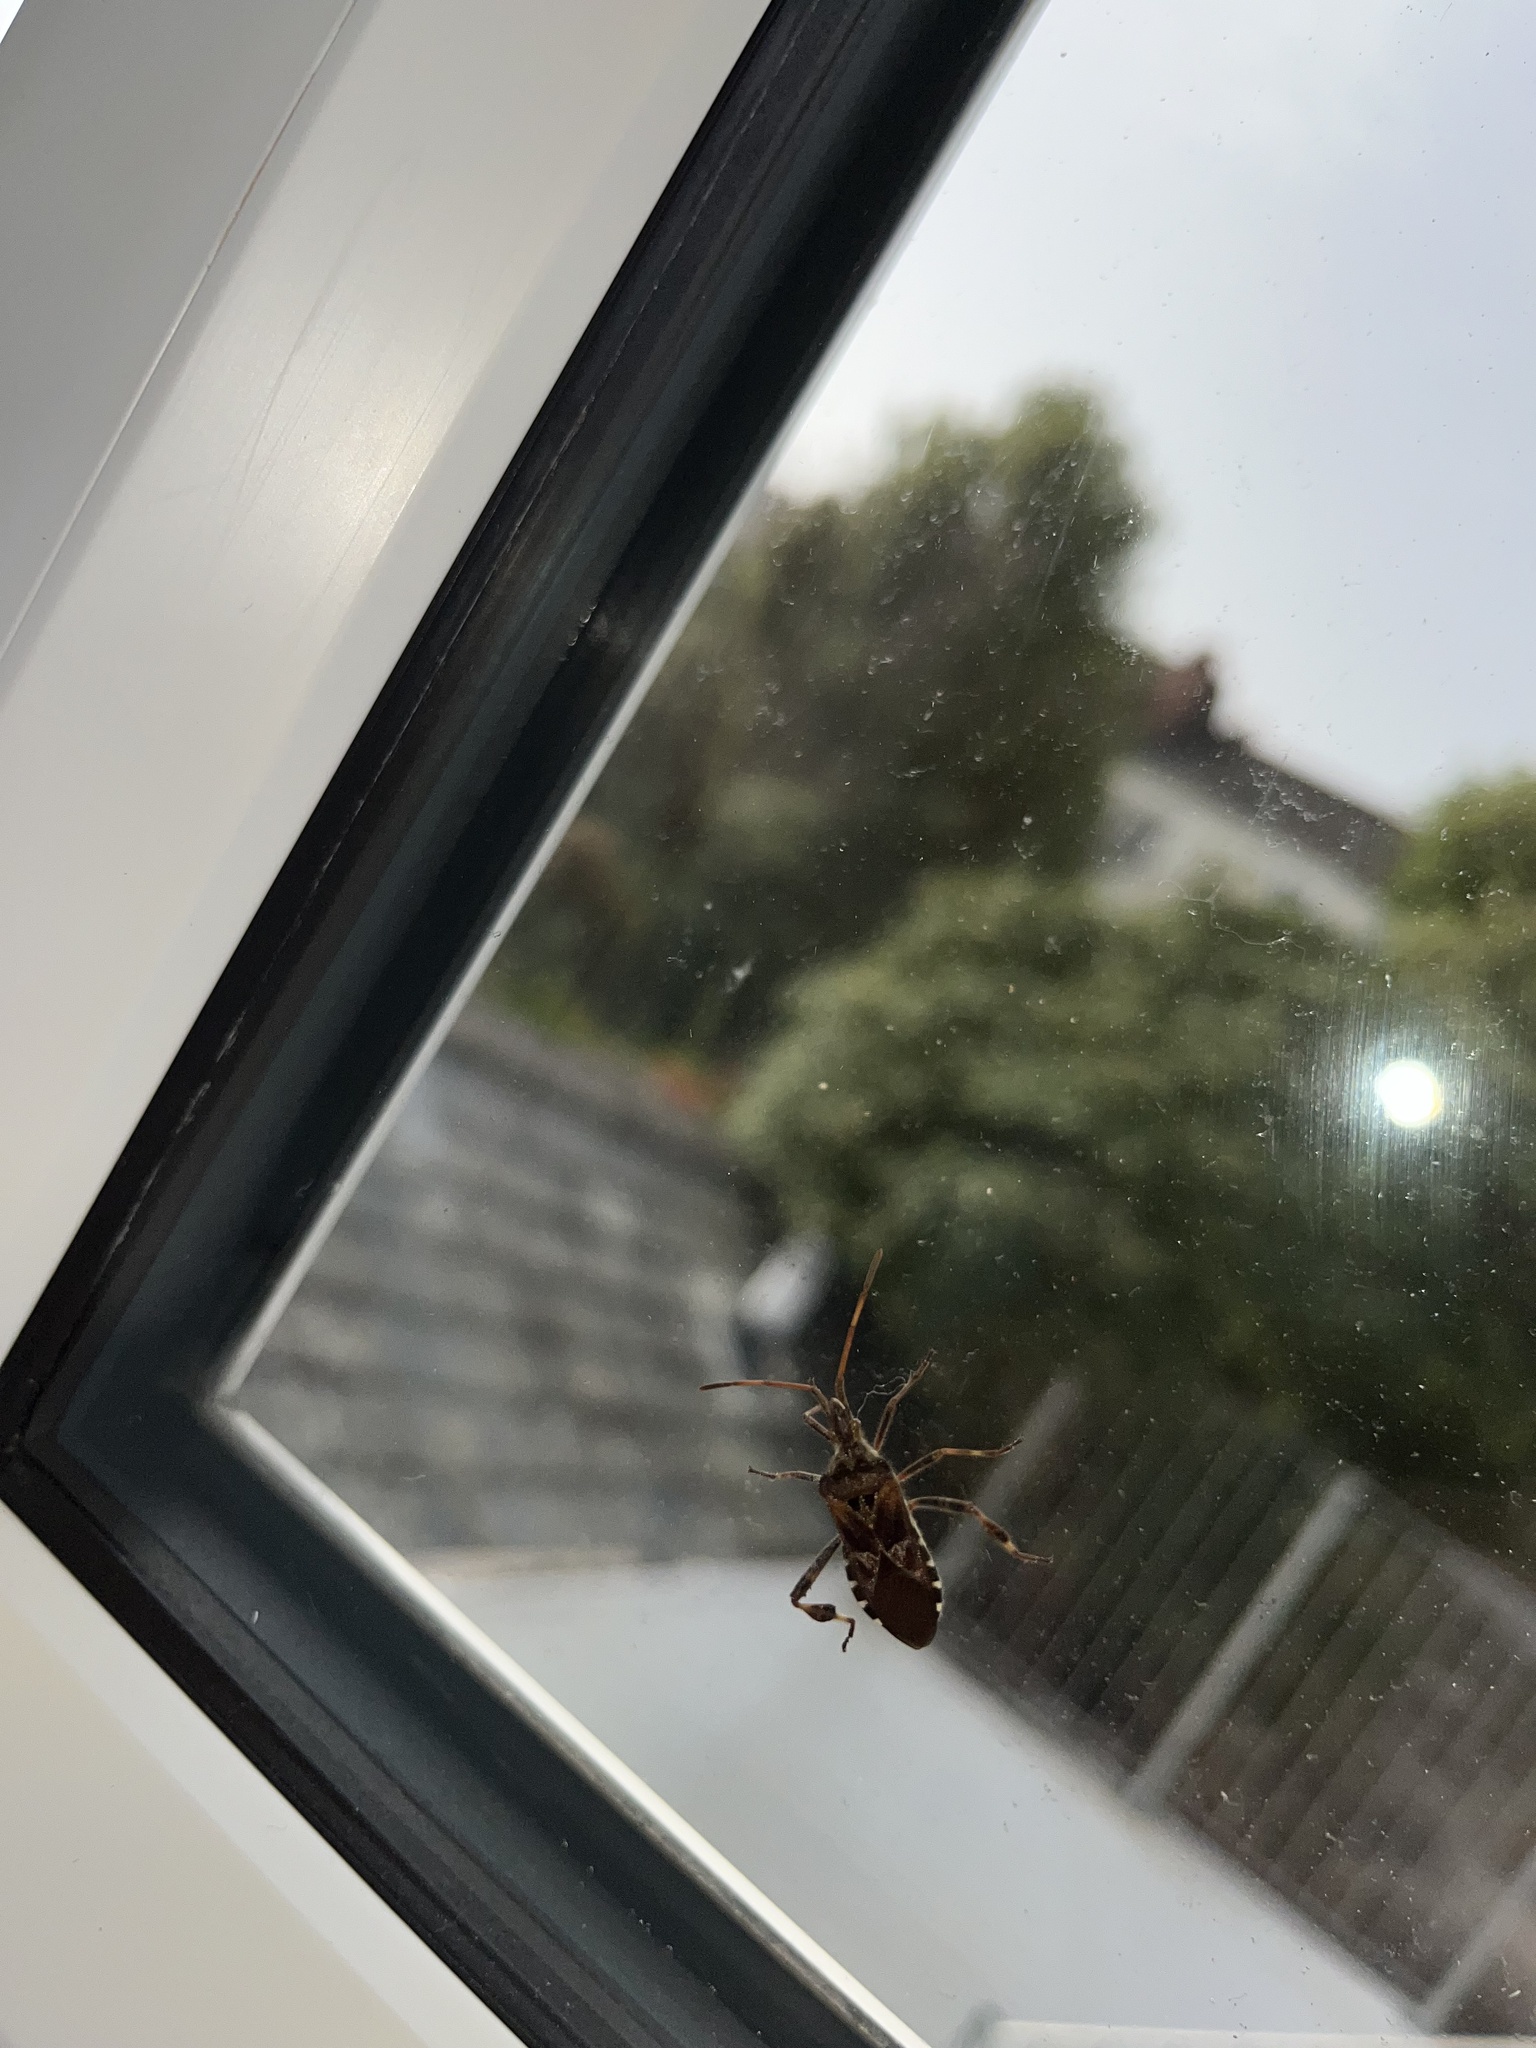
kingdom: Animalia
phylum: Arthropoda
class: Insecta
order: Hemiptera
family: Coreidae
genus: Leptoglossus
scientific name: Leptoglossus occidentalis
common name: Western conifer-seed bug
